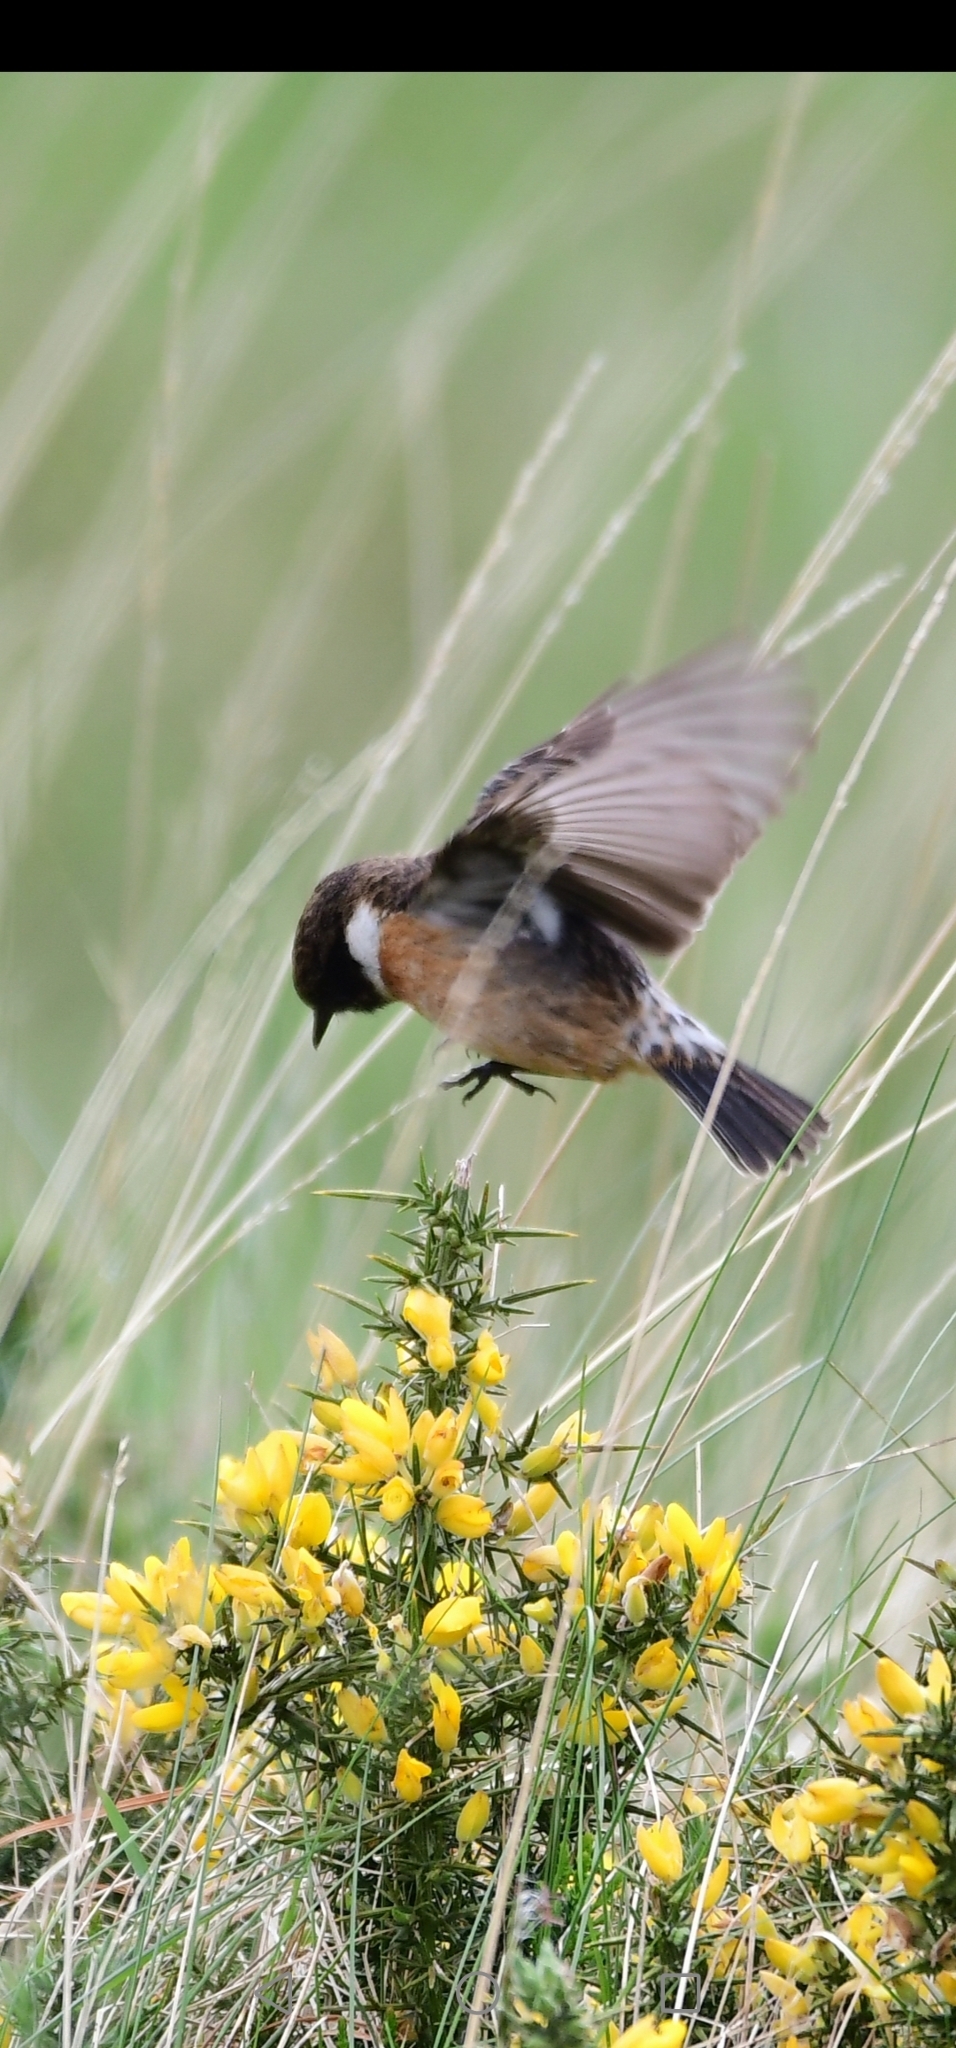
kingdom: Animalia
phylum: Chordata
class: Aves
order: Passeriformes
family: Muscicapidae
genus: Saxicola
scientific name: Saxicola rubicola
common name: European stonechat
